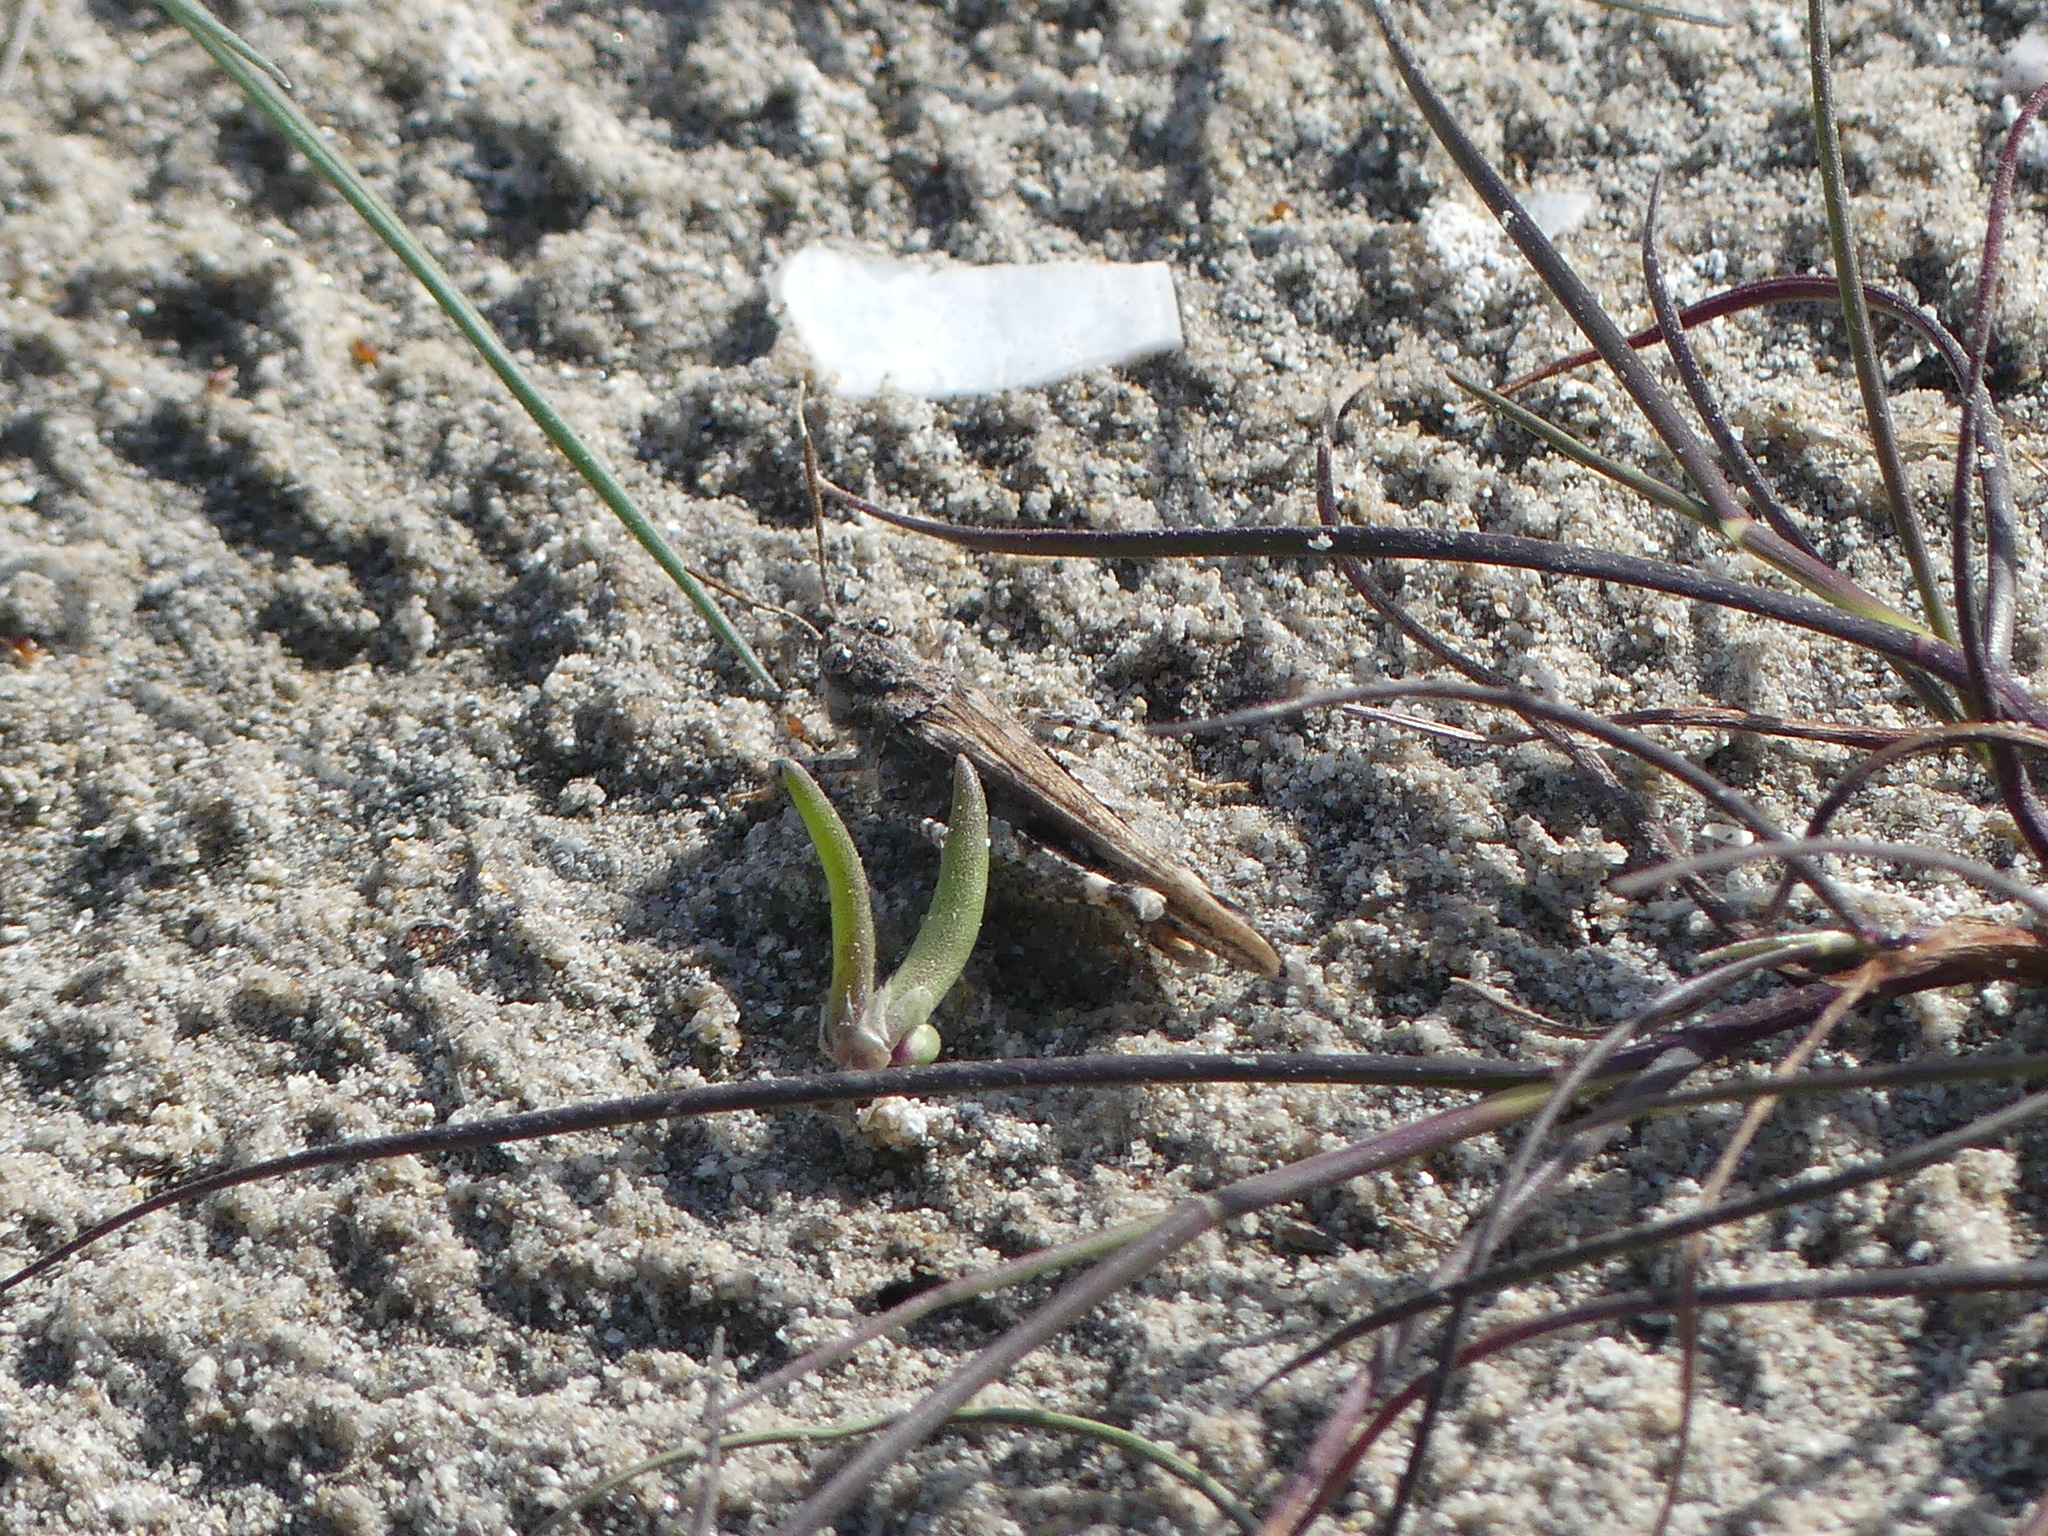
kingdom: Animalia
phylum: Arthropoda
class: Insecta
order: Orthoptera
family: Acrididae
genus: Acrotylus
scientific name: Acrotylus insubricus
